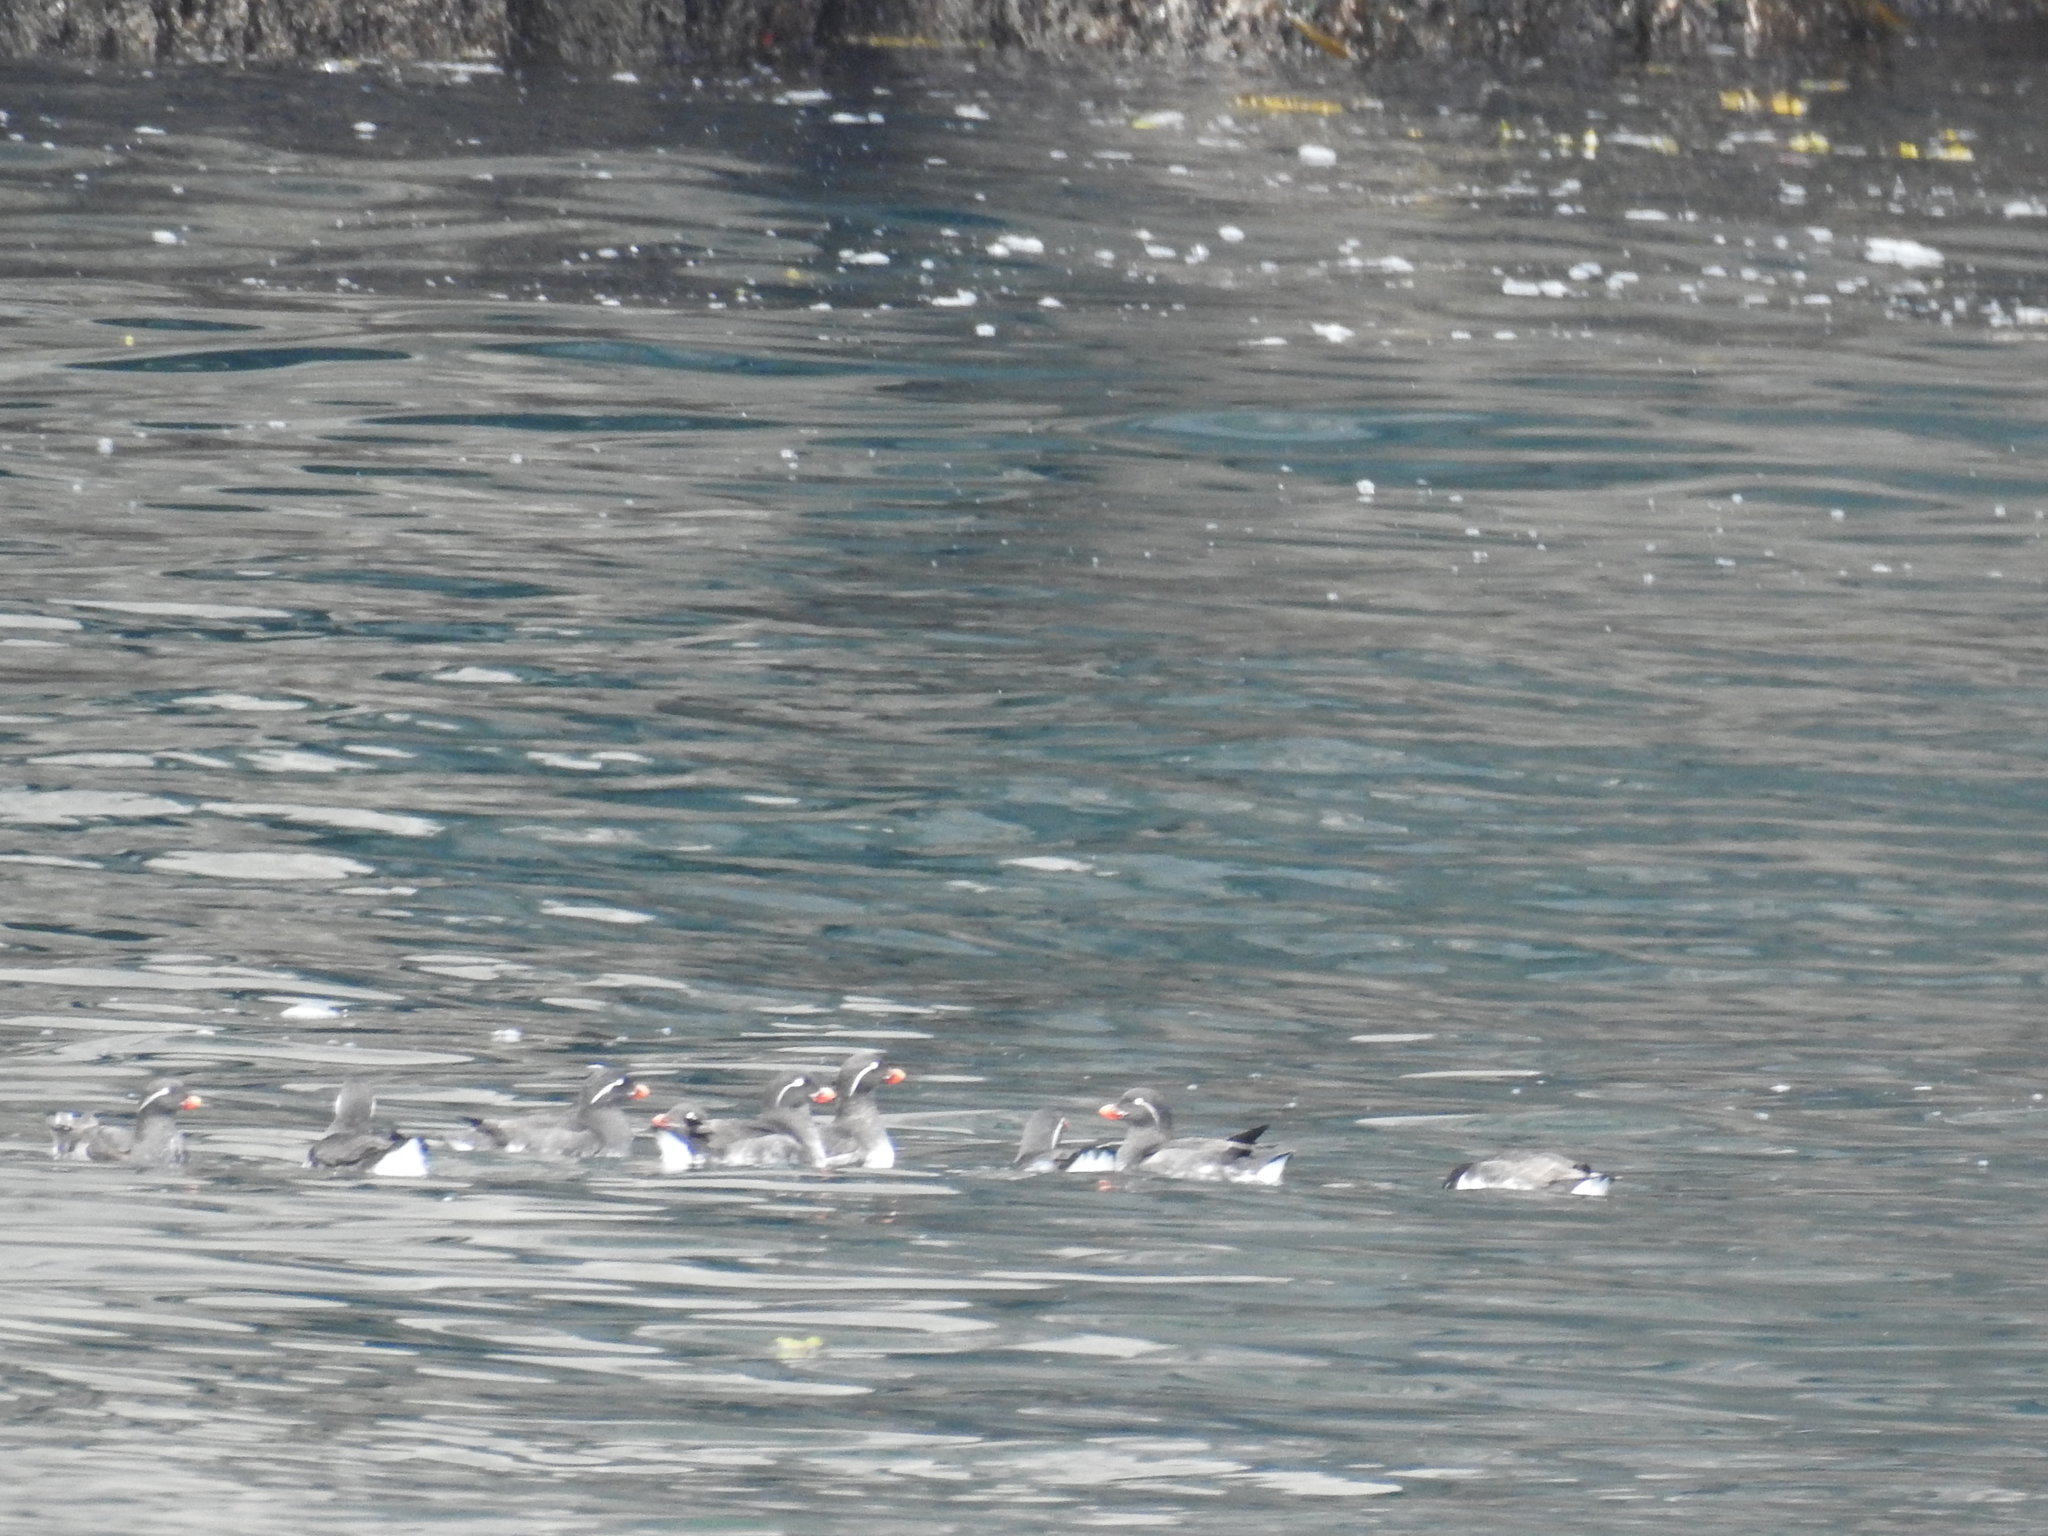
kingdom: Animalia
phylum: Chordata
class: Aves
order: Charadriiformes
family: Alcidae
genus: Aethia
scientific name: Aethia psittacula
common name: Parakeet auklet
